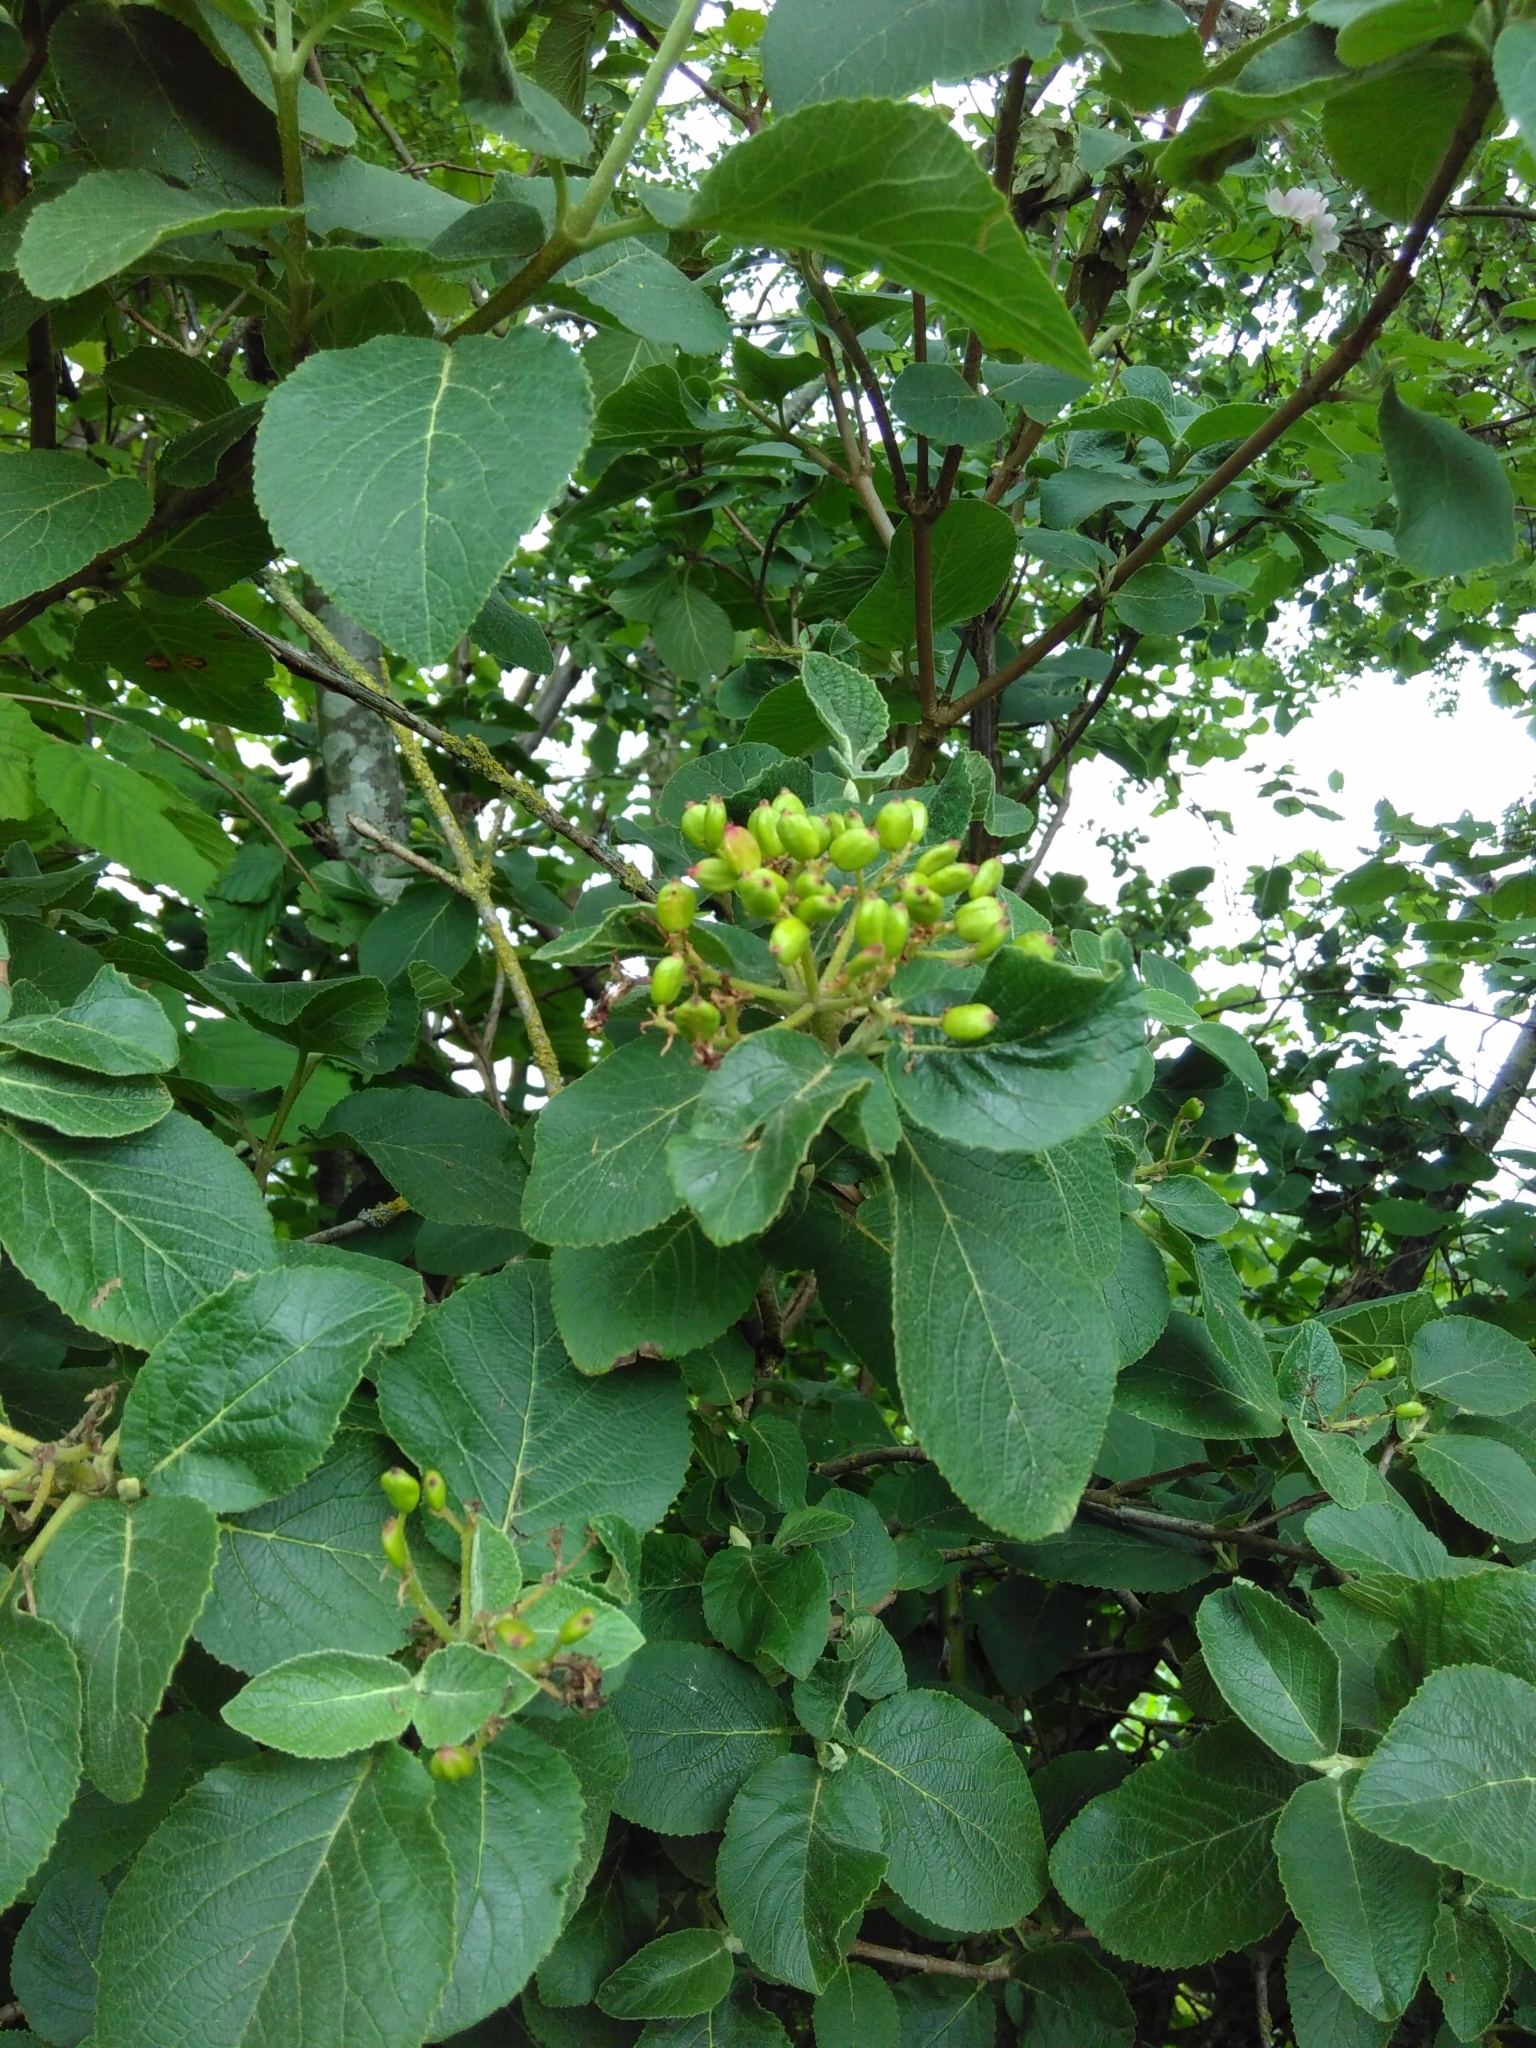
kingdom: Plantae
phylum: Tracheophyta
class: Magnoliopsida
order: Dipsacales
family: Viburnaceae
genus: Viburnum
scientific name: Viburnum lantana
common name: Wayfaring tree
